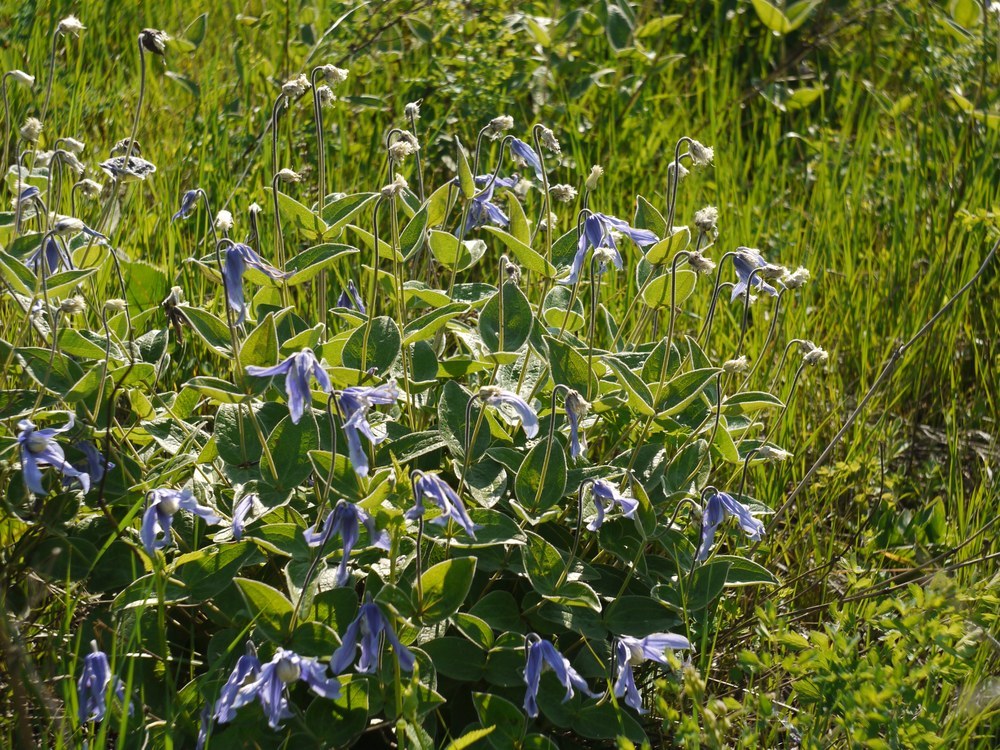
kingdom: Plantae
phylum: Tracheophyta
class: Magnoliopsida
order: Ranunculales
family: Ranunculaceae
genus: Clematis
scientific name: Clematis integrifolia
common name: Solitary clematis
